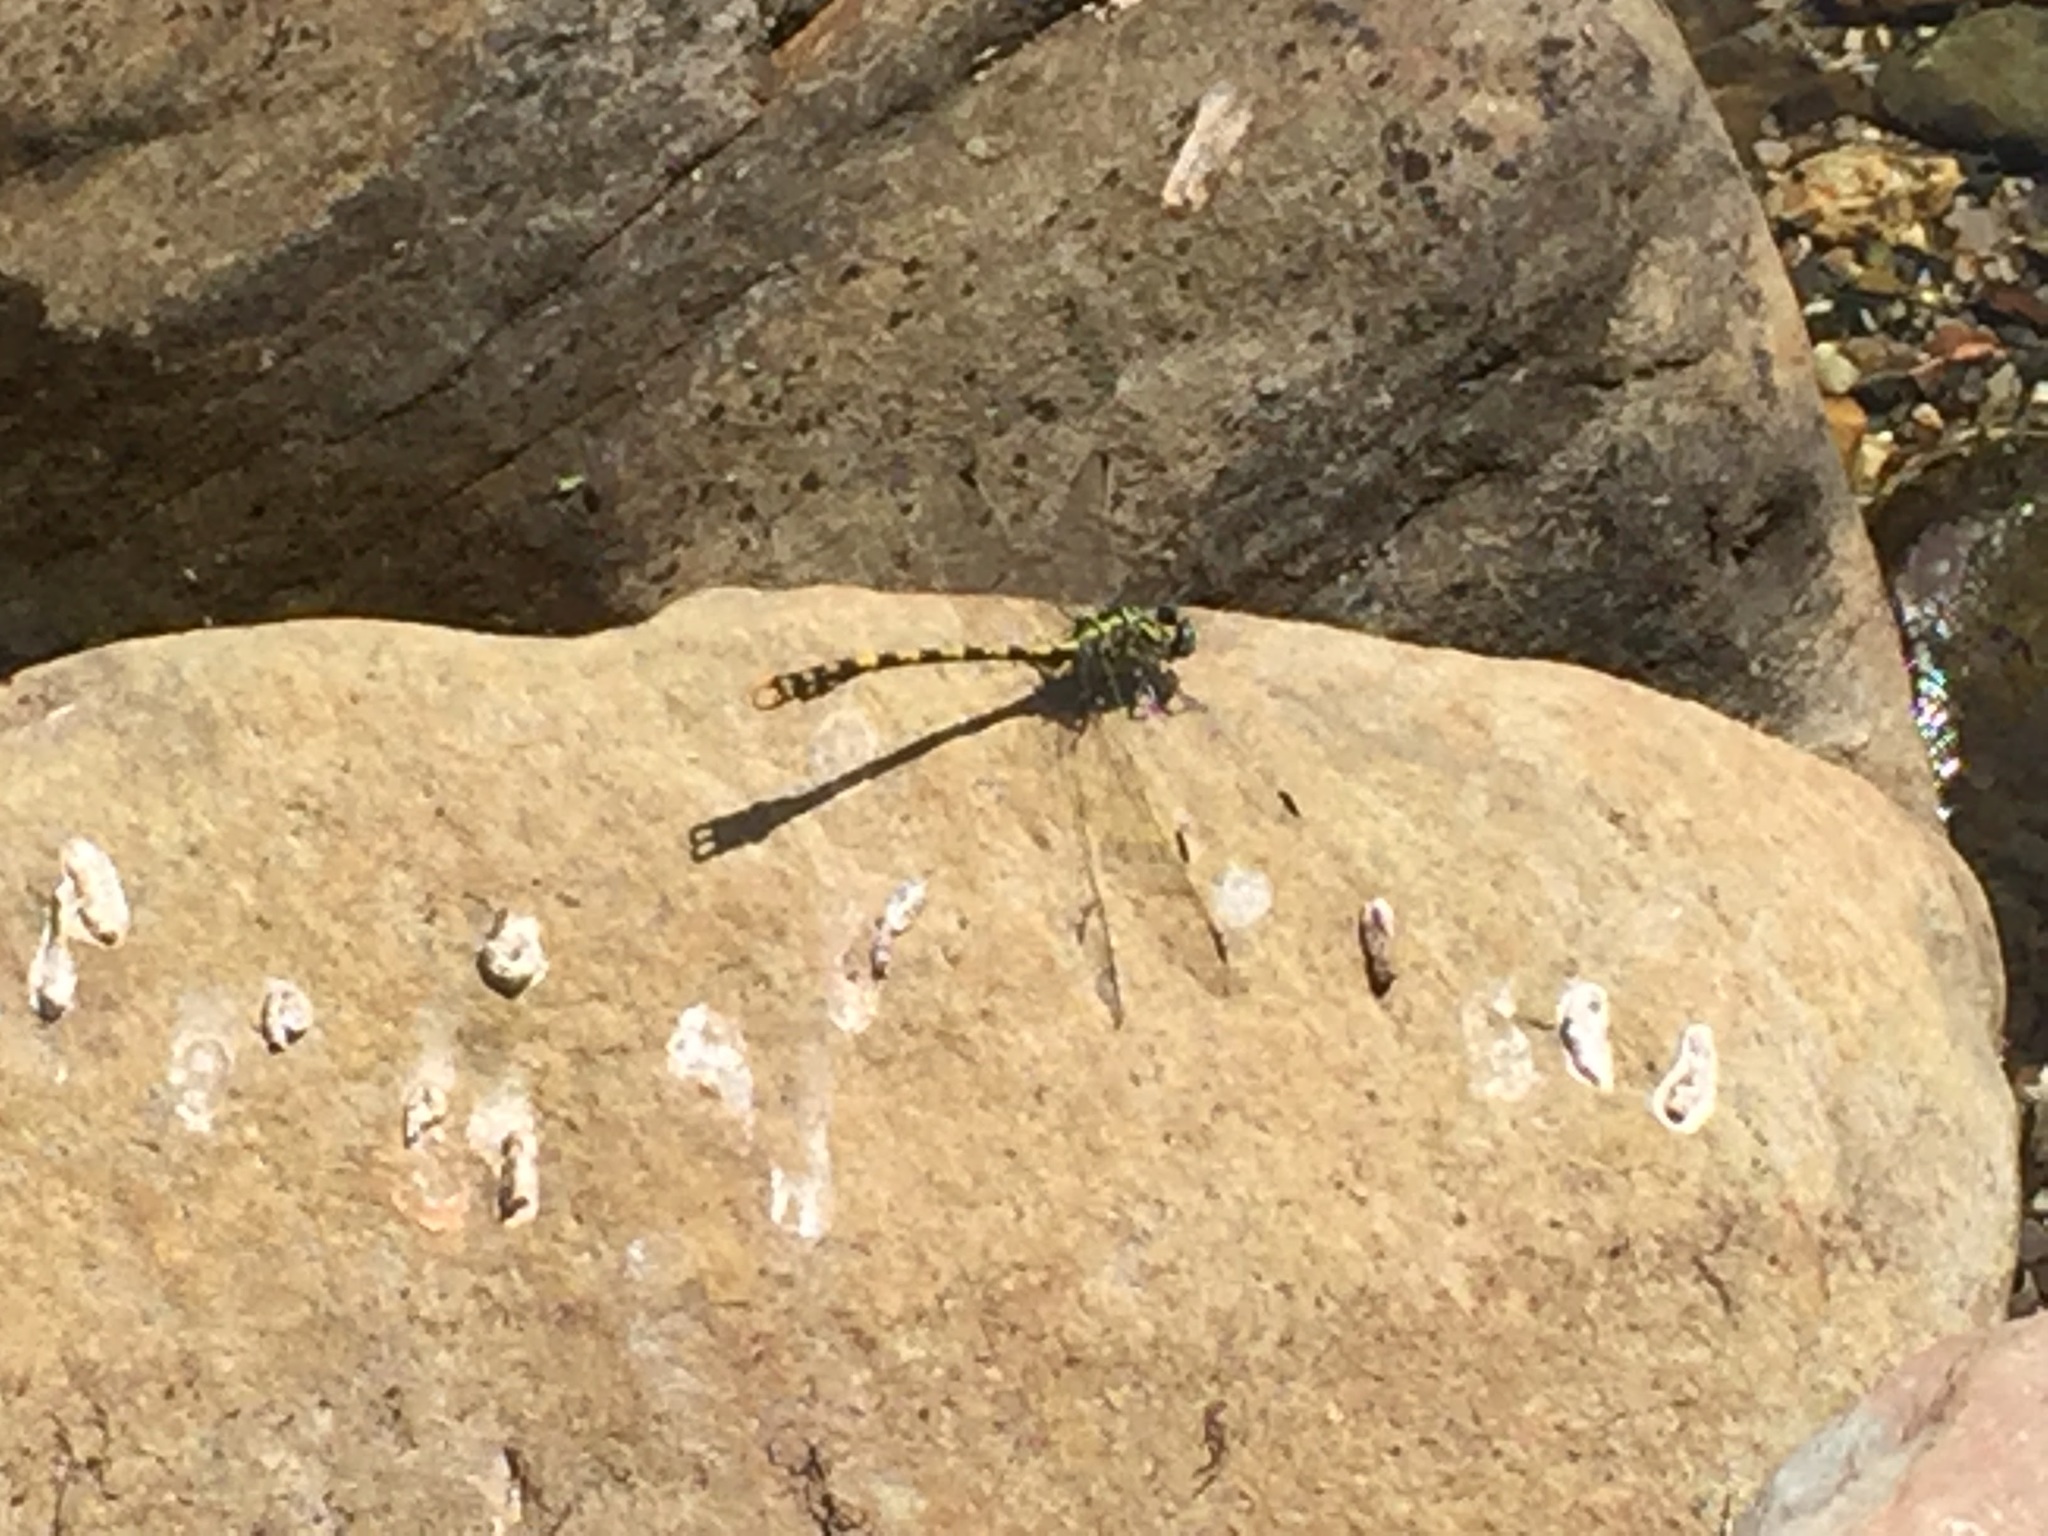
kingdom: Animalia
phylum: Arthropoda
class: Insecta
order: Odonata
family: Gomphidae
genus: Onychogomphus
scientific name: Onychogomphus uncatus
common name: Large pincertail
